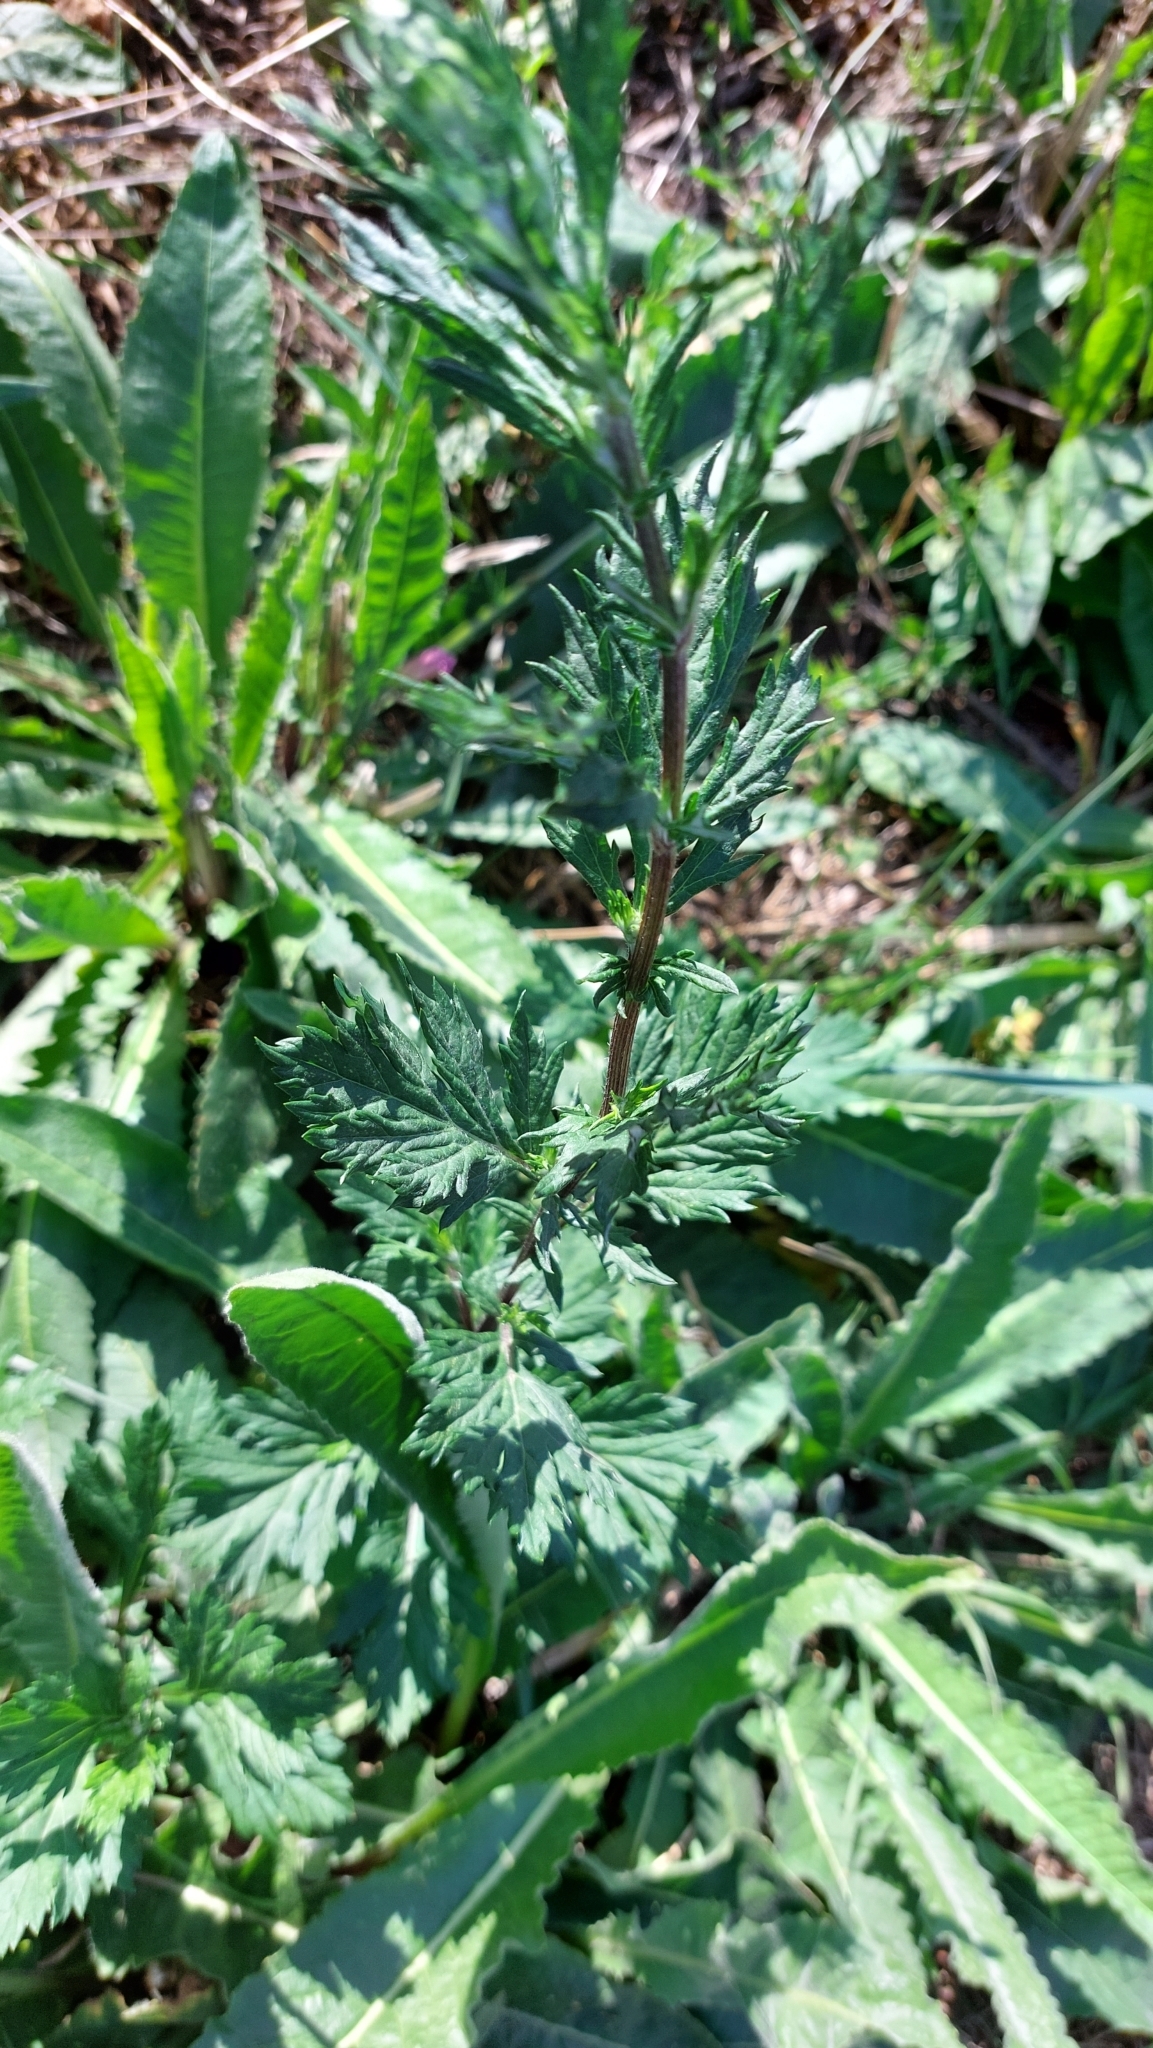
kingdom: Plantae
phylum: Tracheophyta
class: Magnoliopsida
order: Asterales
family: Asteraceae
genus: Artemisia
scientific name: Artemisia vulgaris
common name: Mugwort
